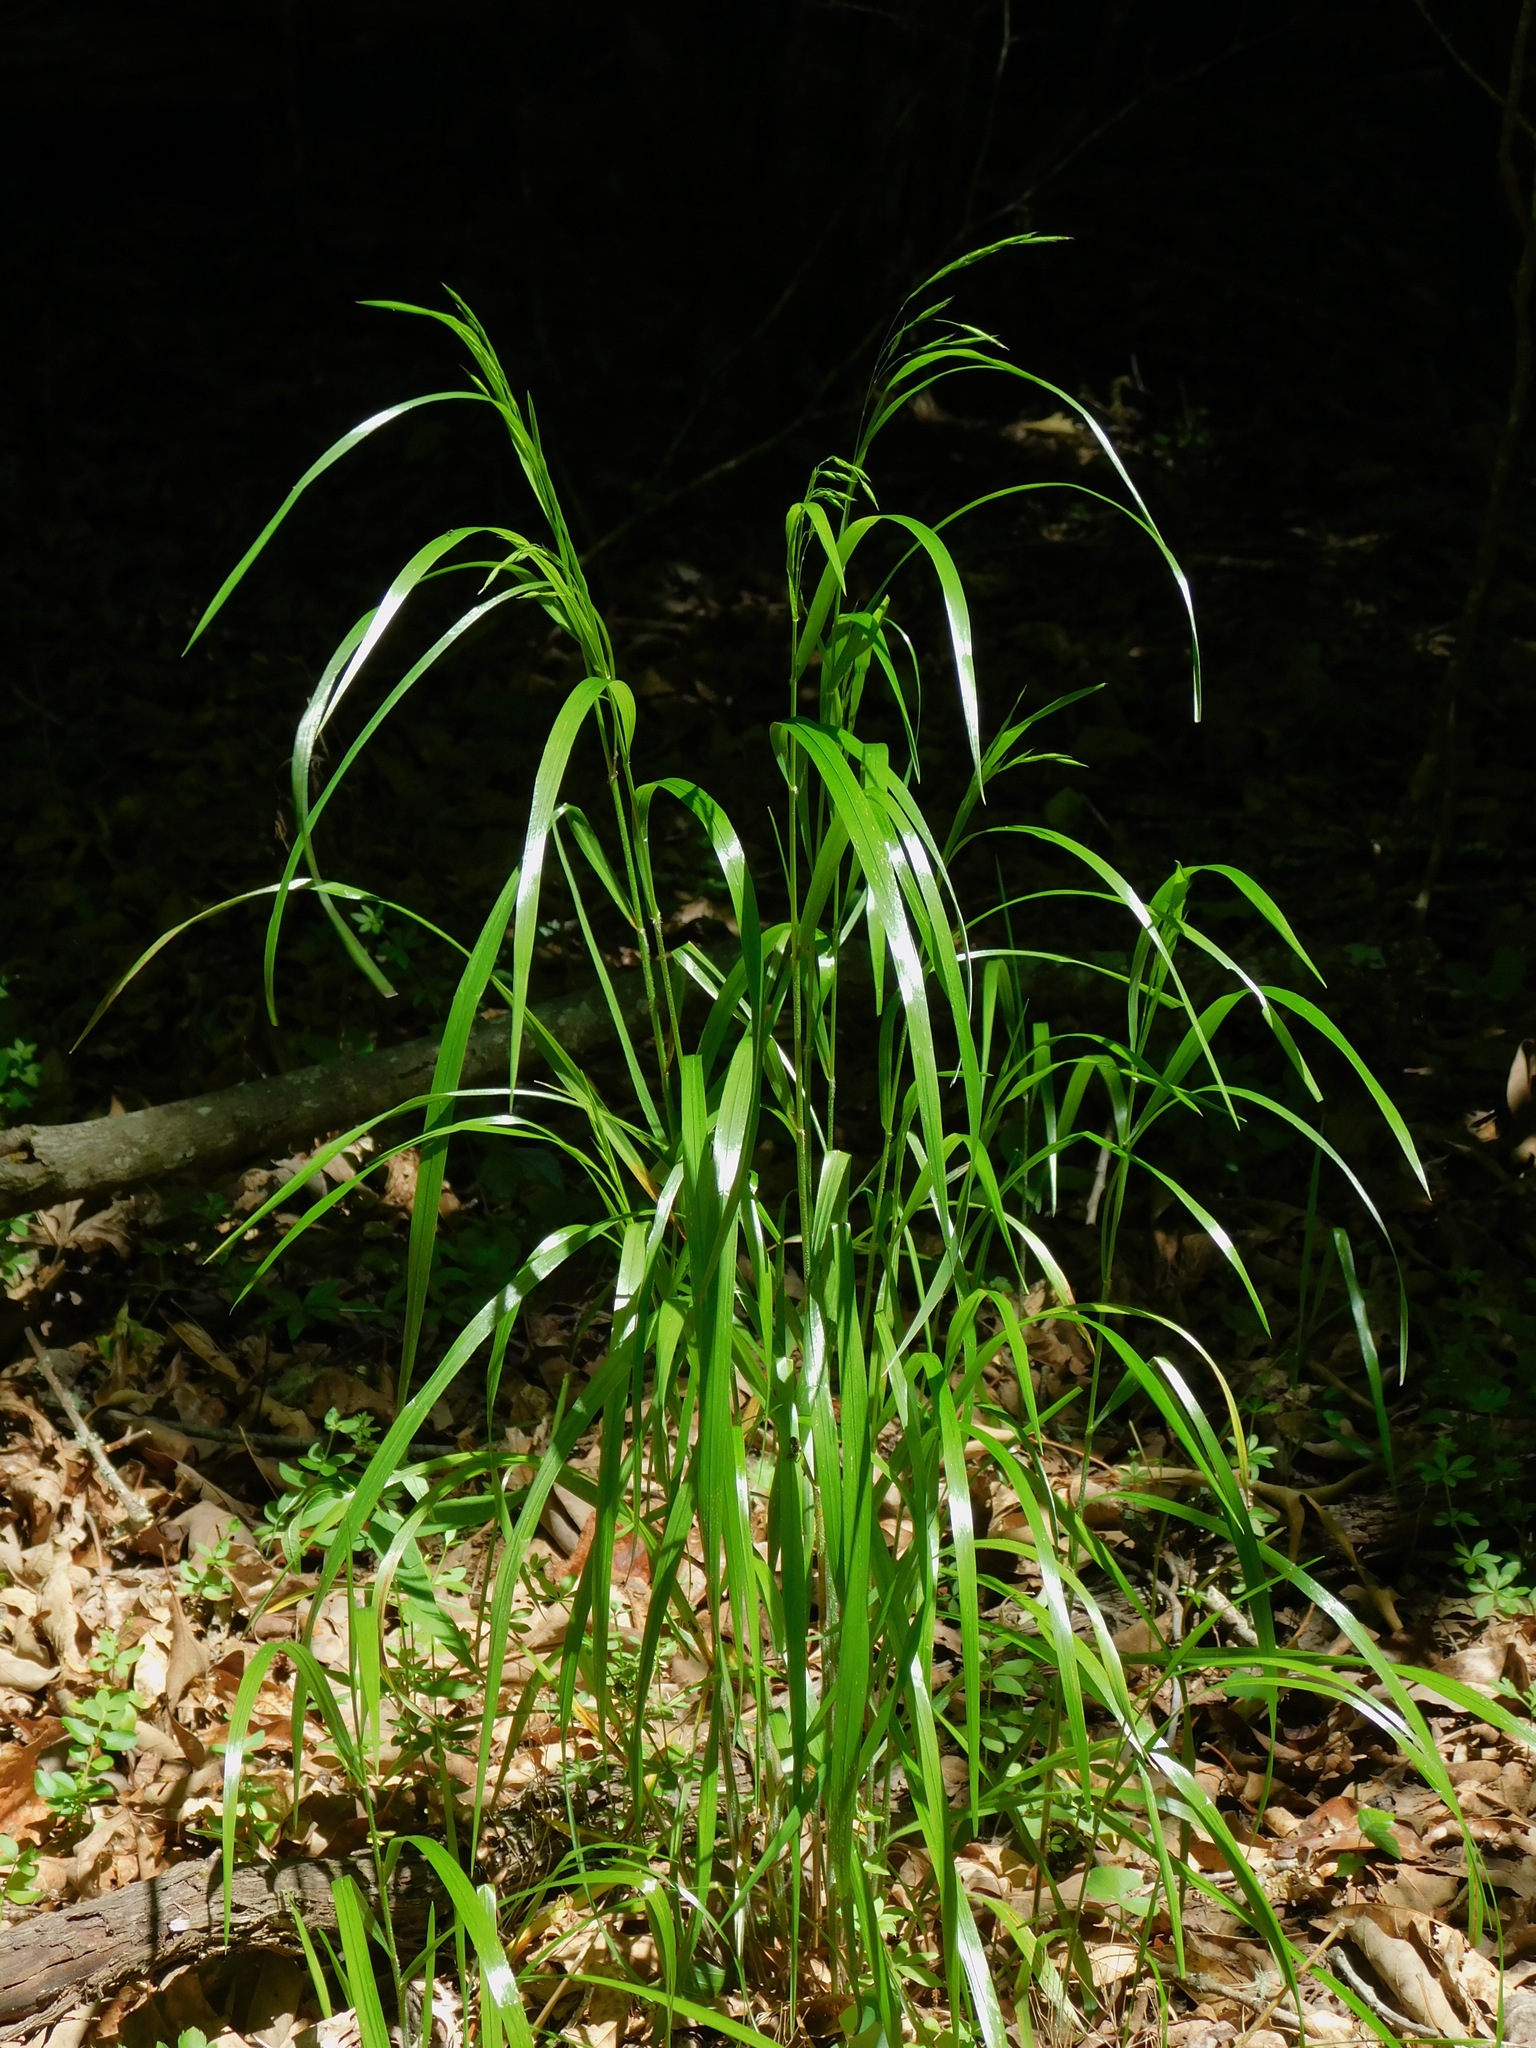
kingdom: Plantae
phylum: Tracheophyta
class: Liliopsida
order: Poales
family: Poaceae
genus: Bromus
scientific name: Bromus nottowayanus
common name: Nottoway valley brome
